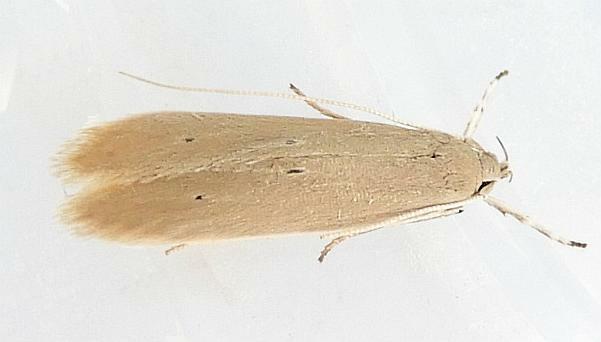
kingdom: Animalia
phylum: Arthropoda
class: Insecta
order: Lepidoptera
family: Coleophoridae
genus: Homaledra
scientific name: Homaledra sabalella
